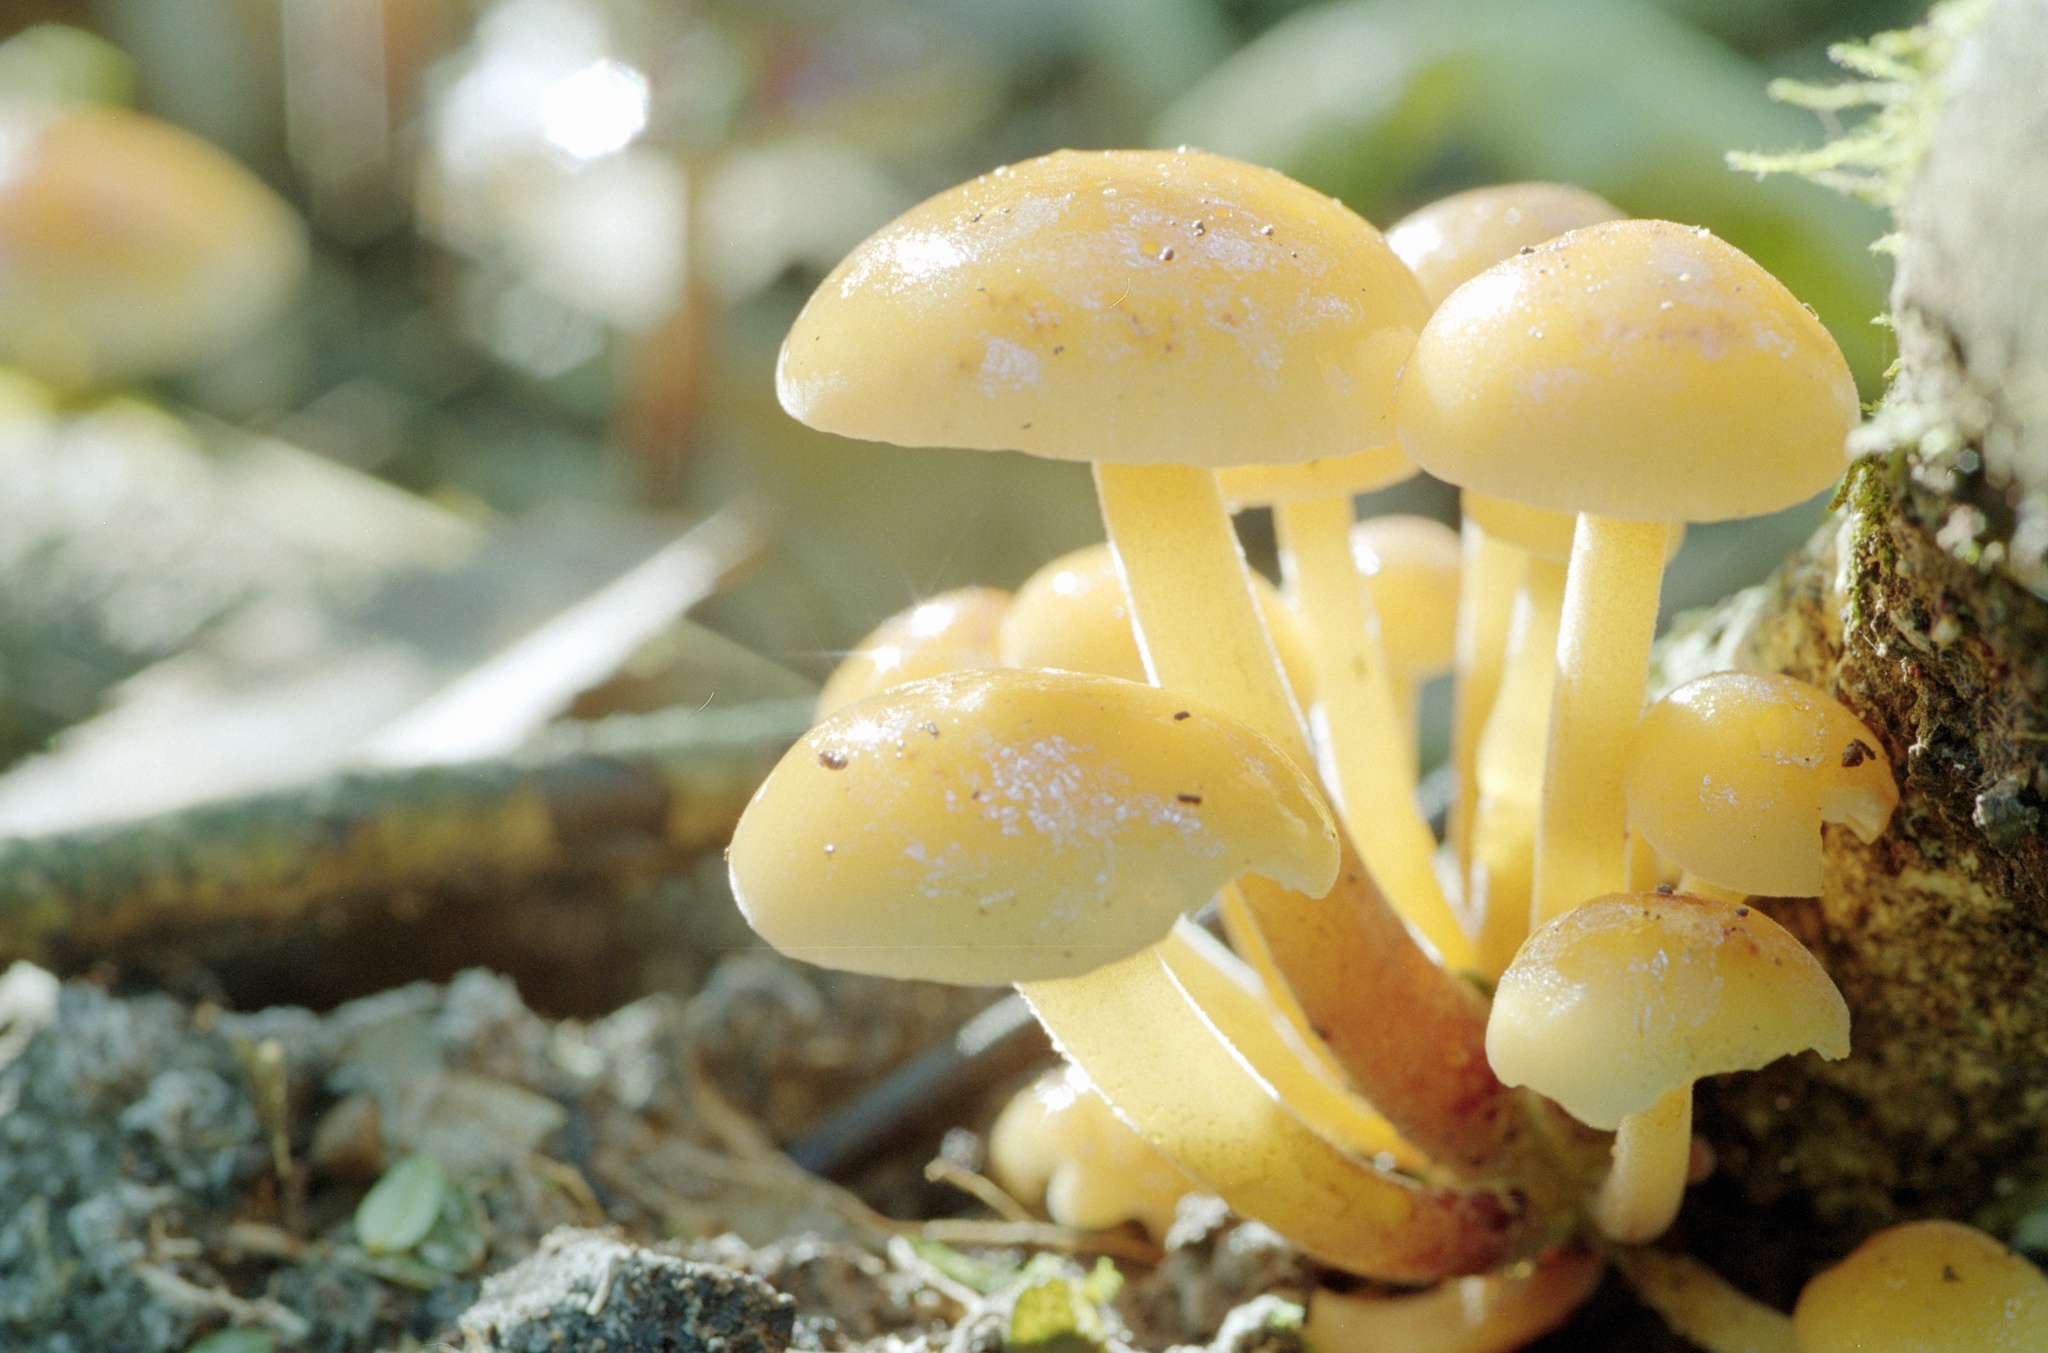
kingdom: Fungi
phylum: Basidiomycota
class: Agaricomycetes
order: Agaricales
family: Physalacriaceae
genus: Flammulina
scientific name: Flammulina velutipes
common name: Velvet shank
